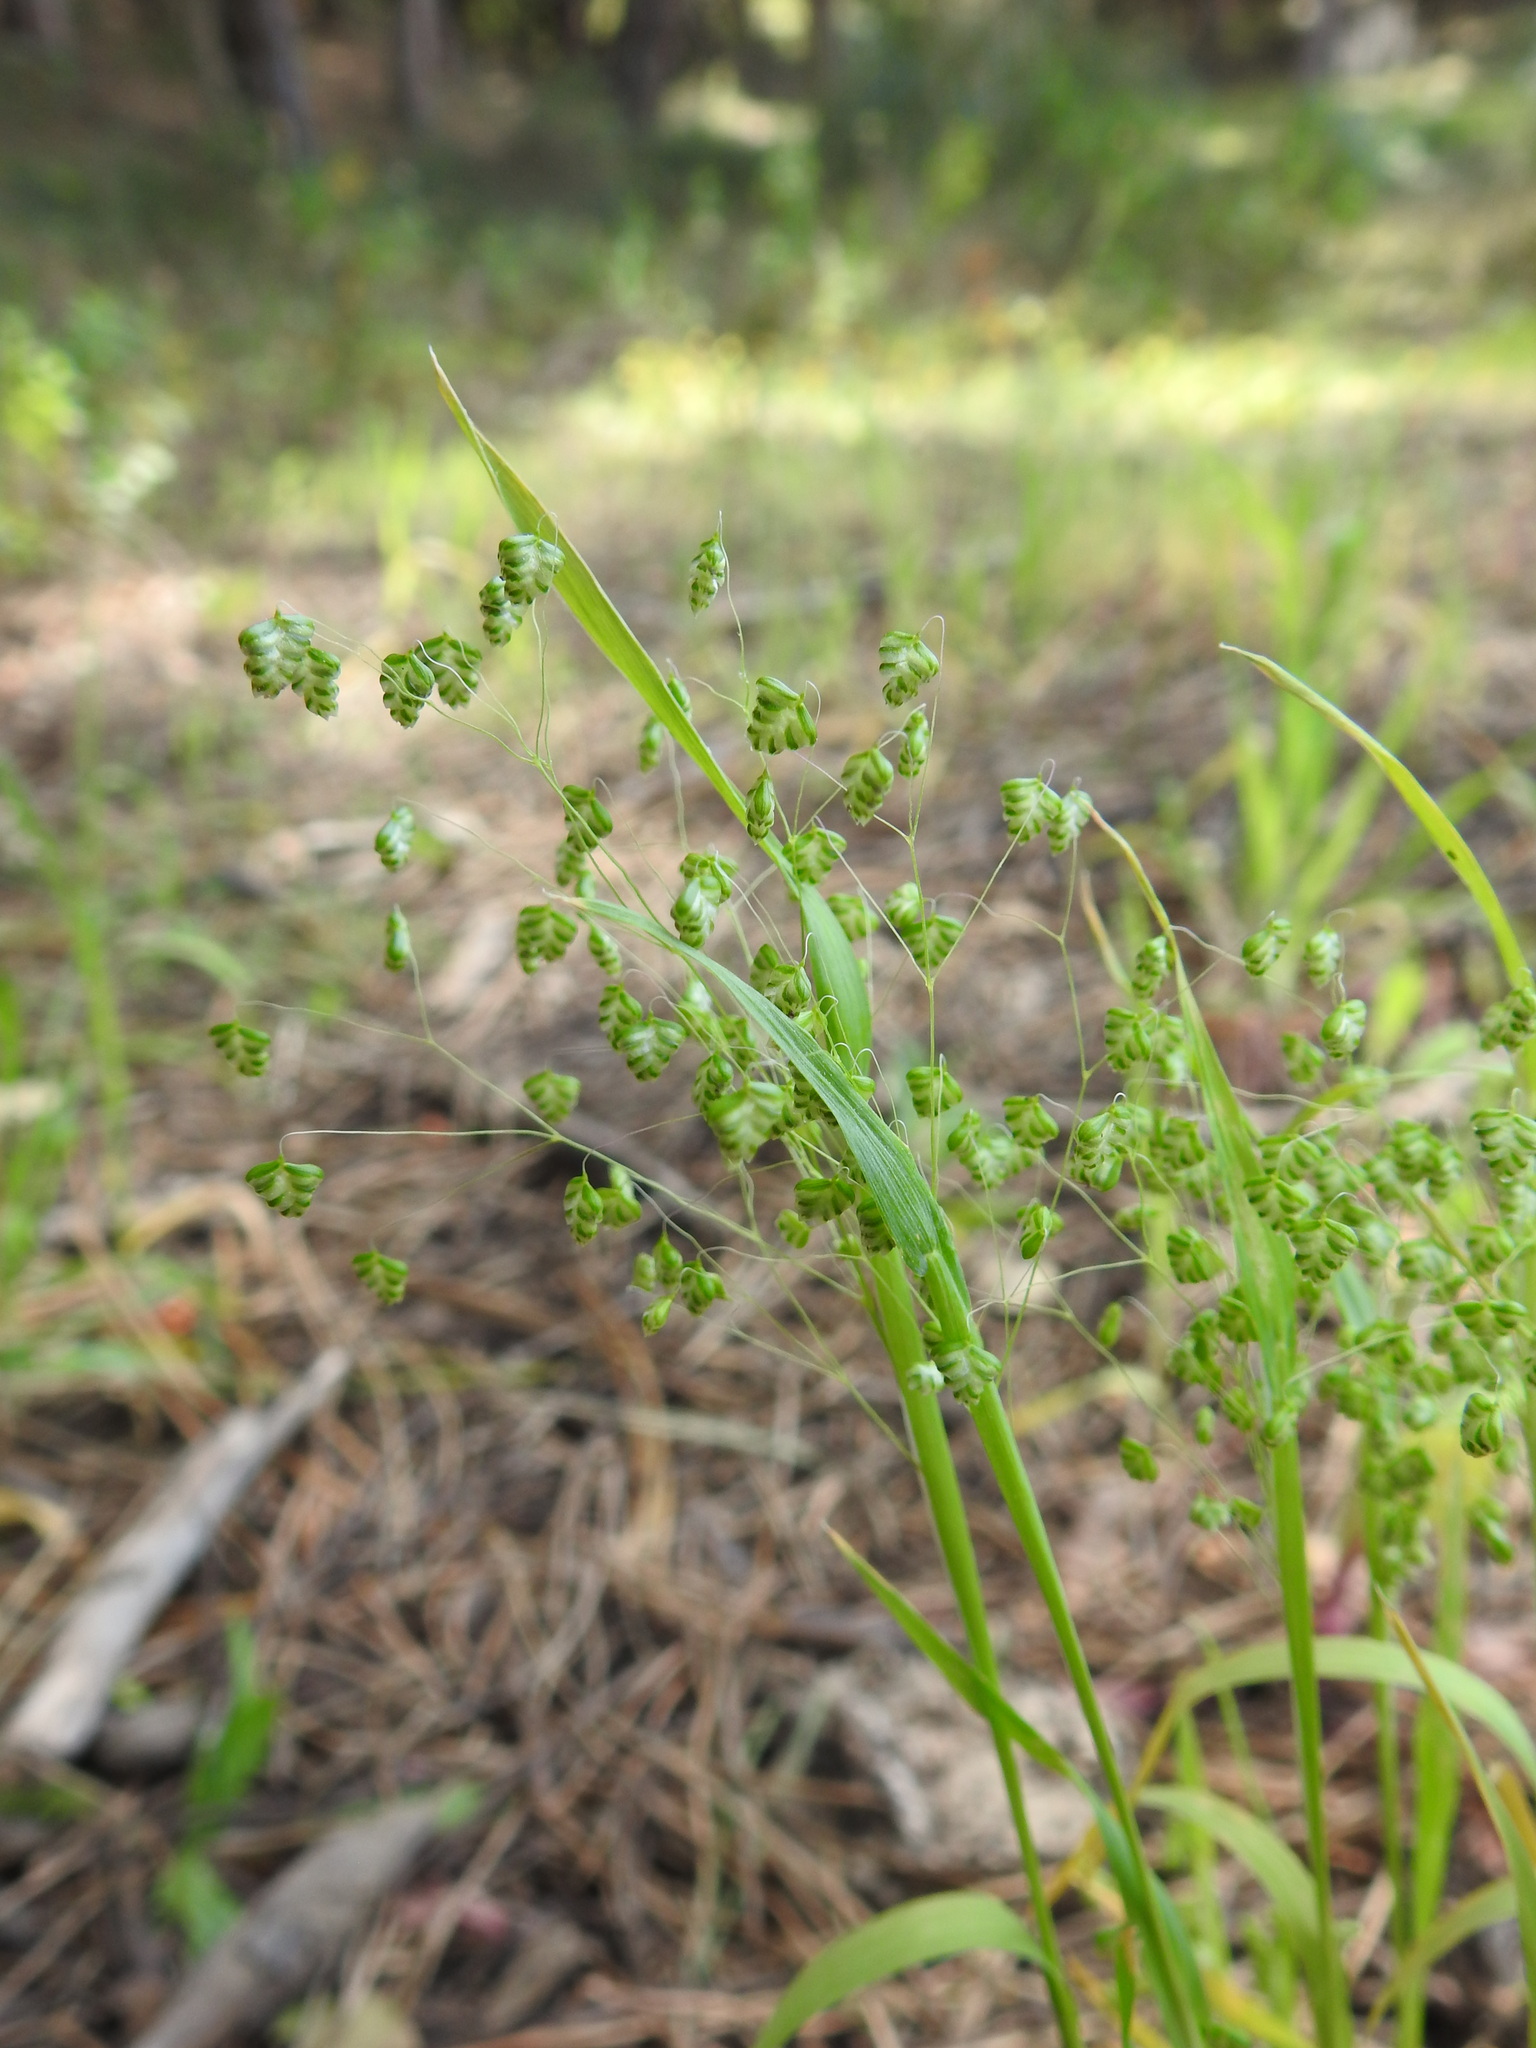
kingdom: Plantae
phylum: Tracheophyta
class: Liliopsida
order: Poales
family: Poaceae
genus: Briza
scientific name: Briza minor
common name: Lesser quaking-grass
